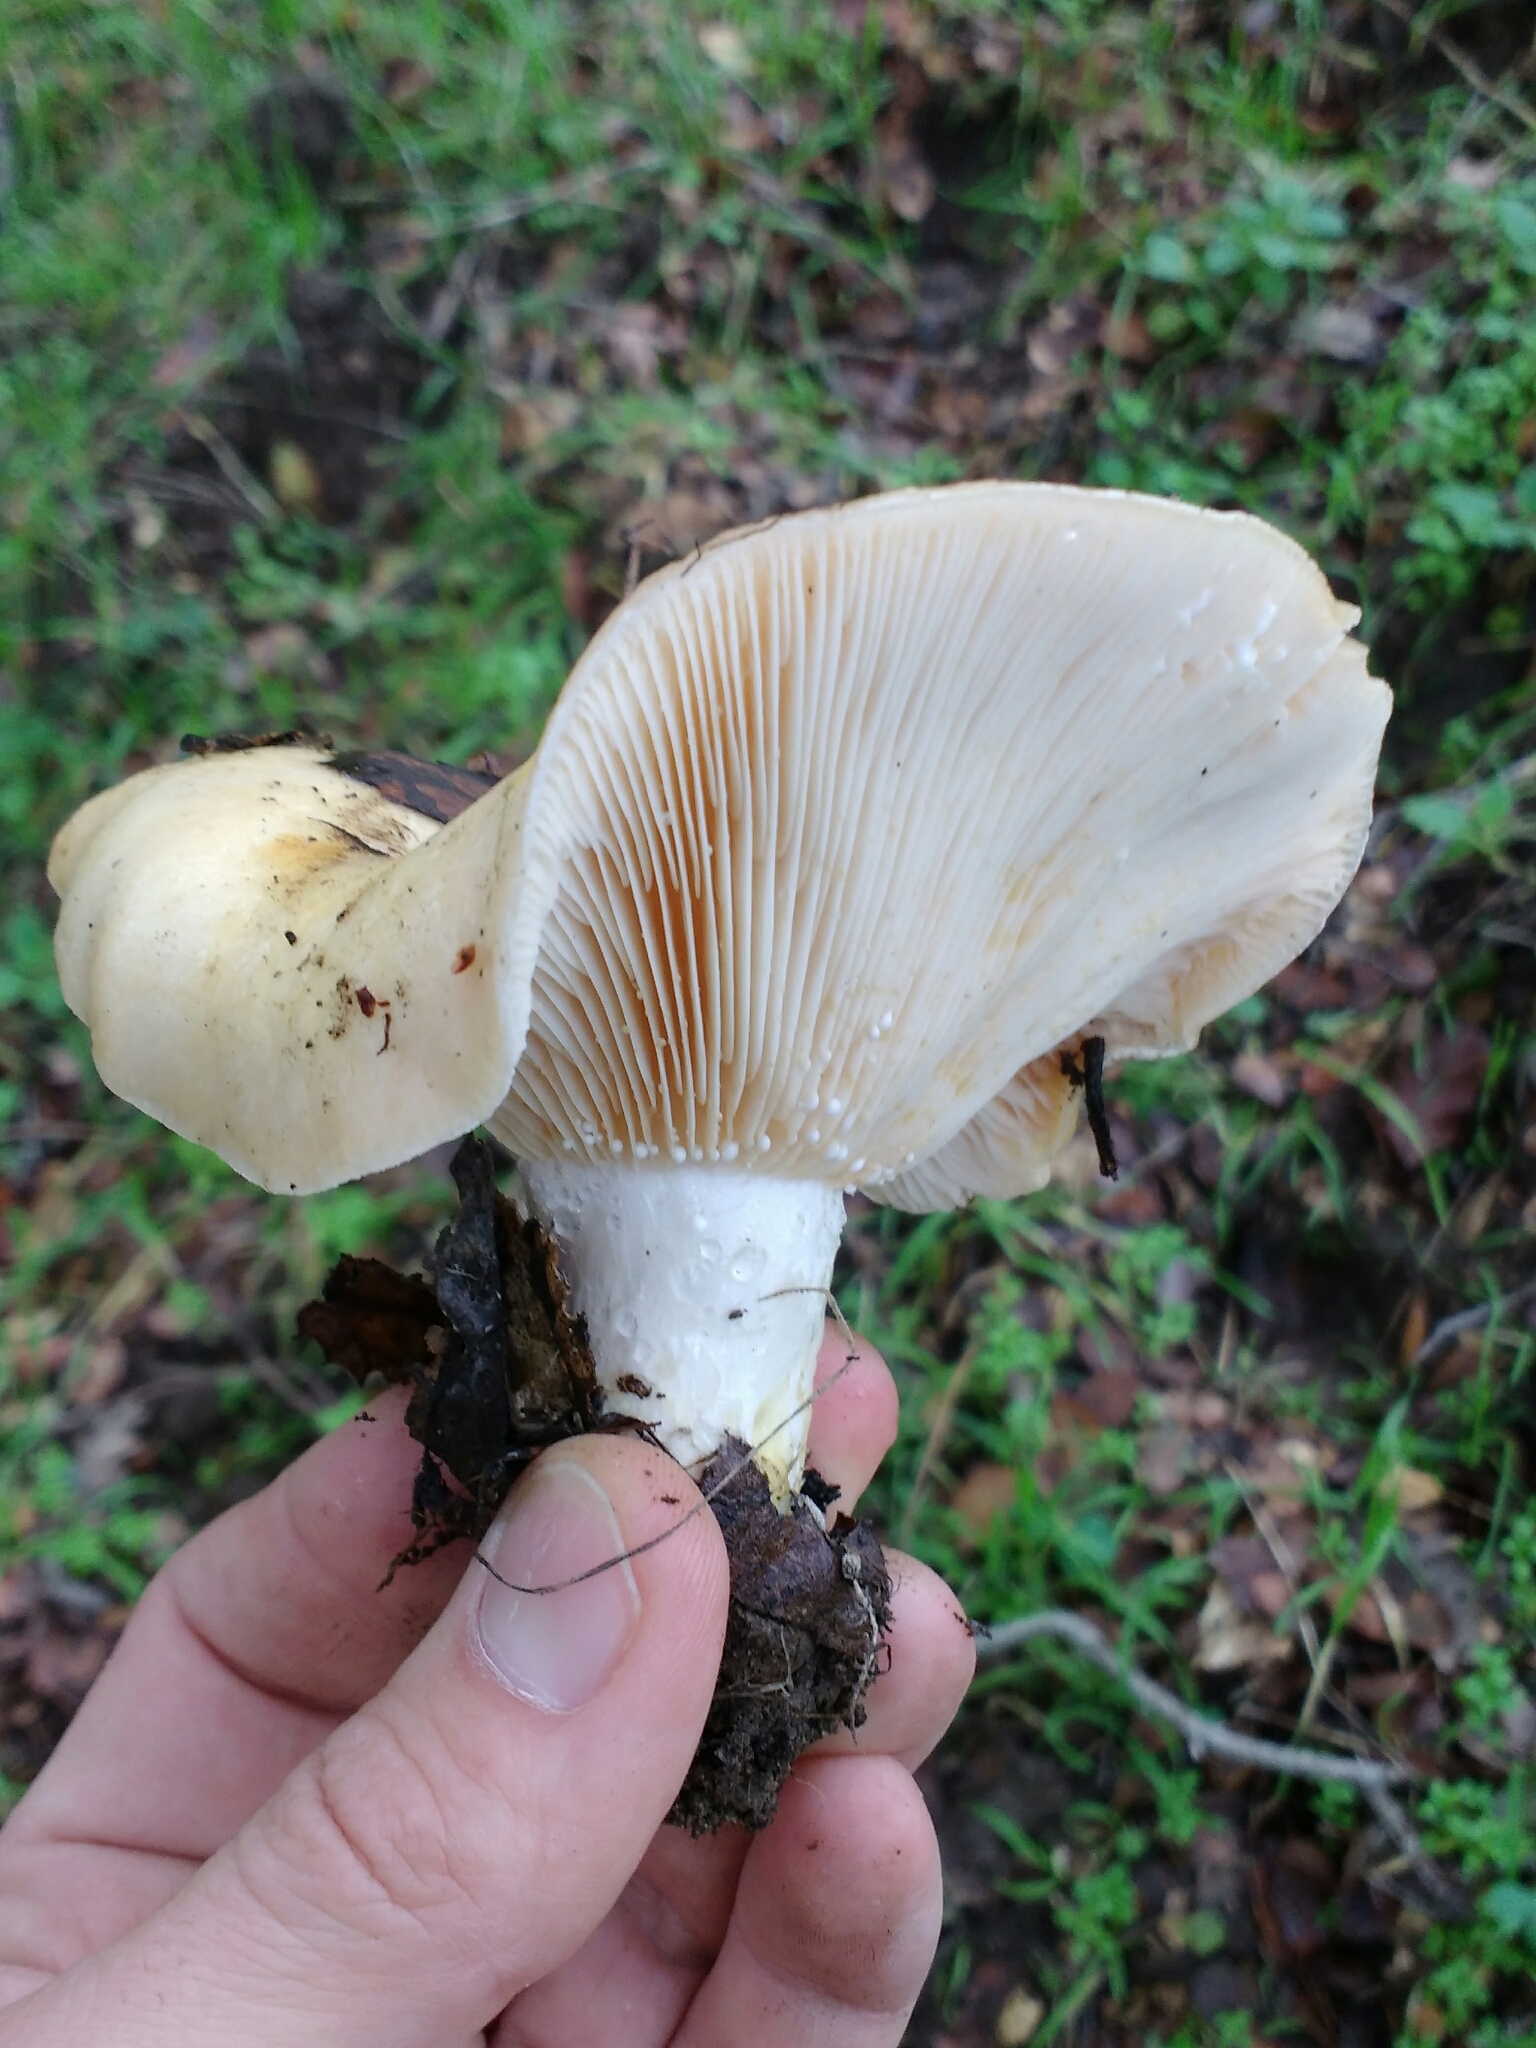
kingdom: Fungi
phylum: Basidiomycota
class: Agaricomycetes
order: Russulales
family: Russulaceae
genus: Lactarius
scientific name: Lactarius alnicola
